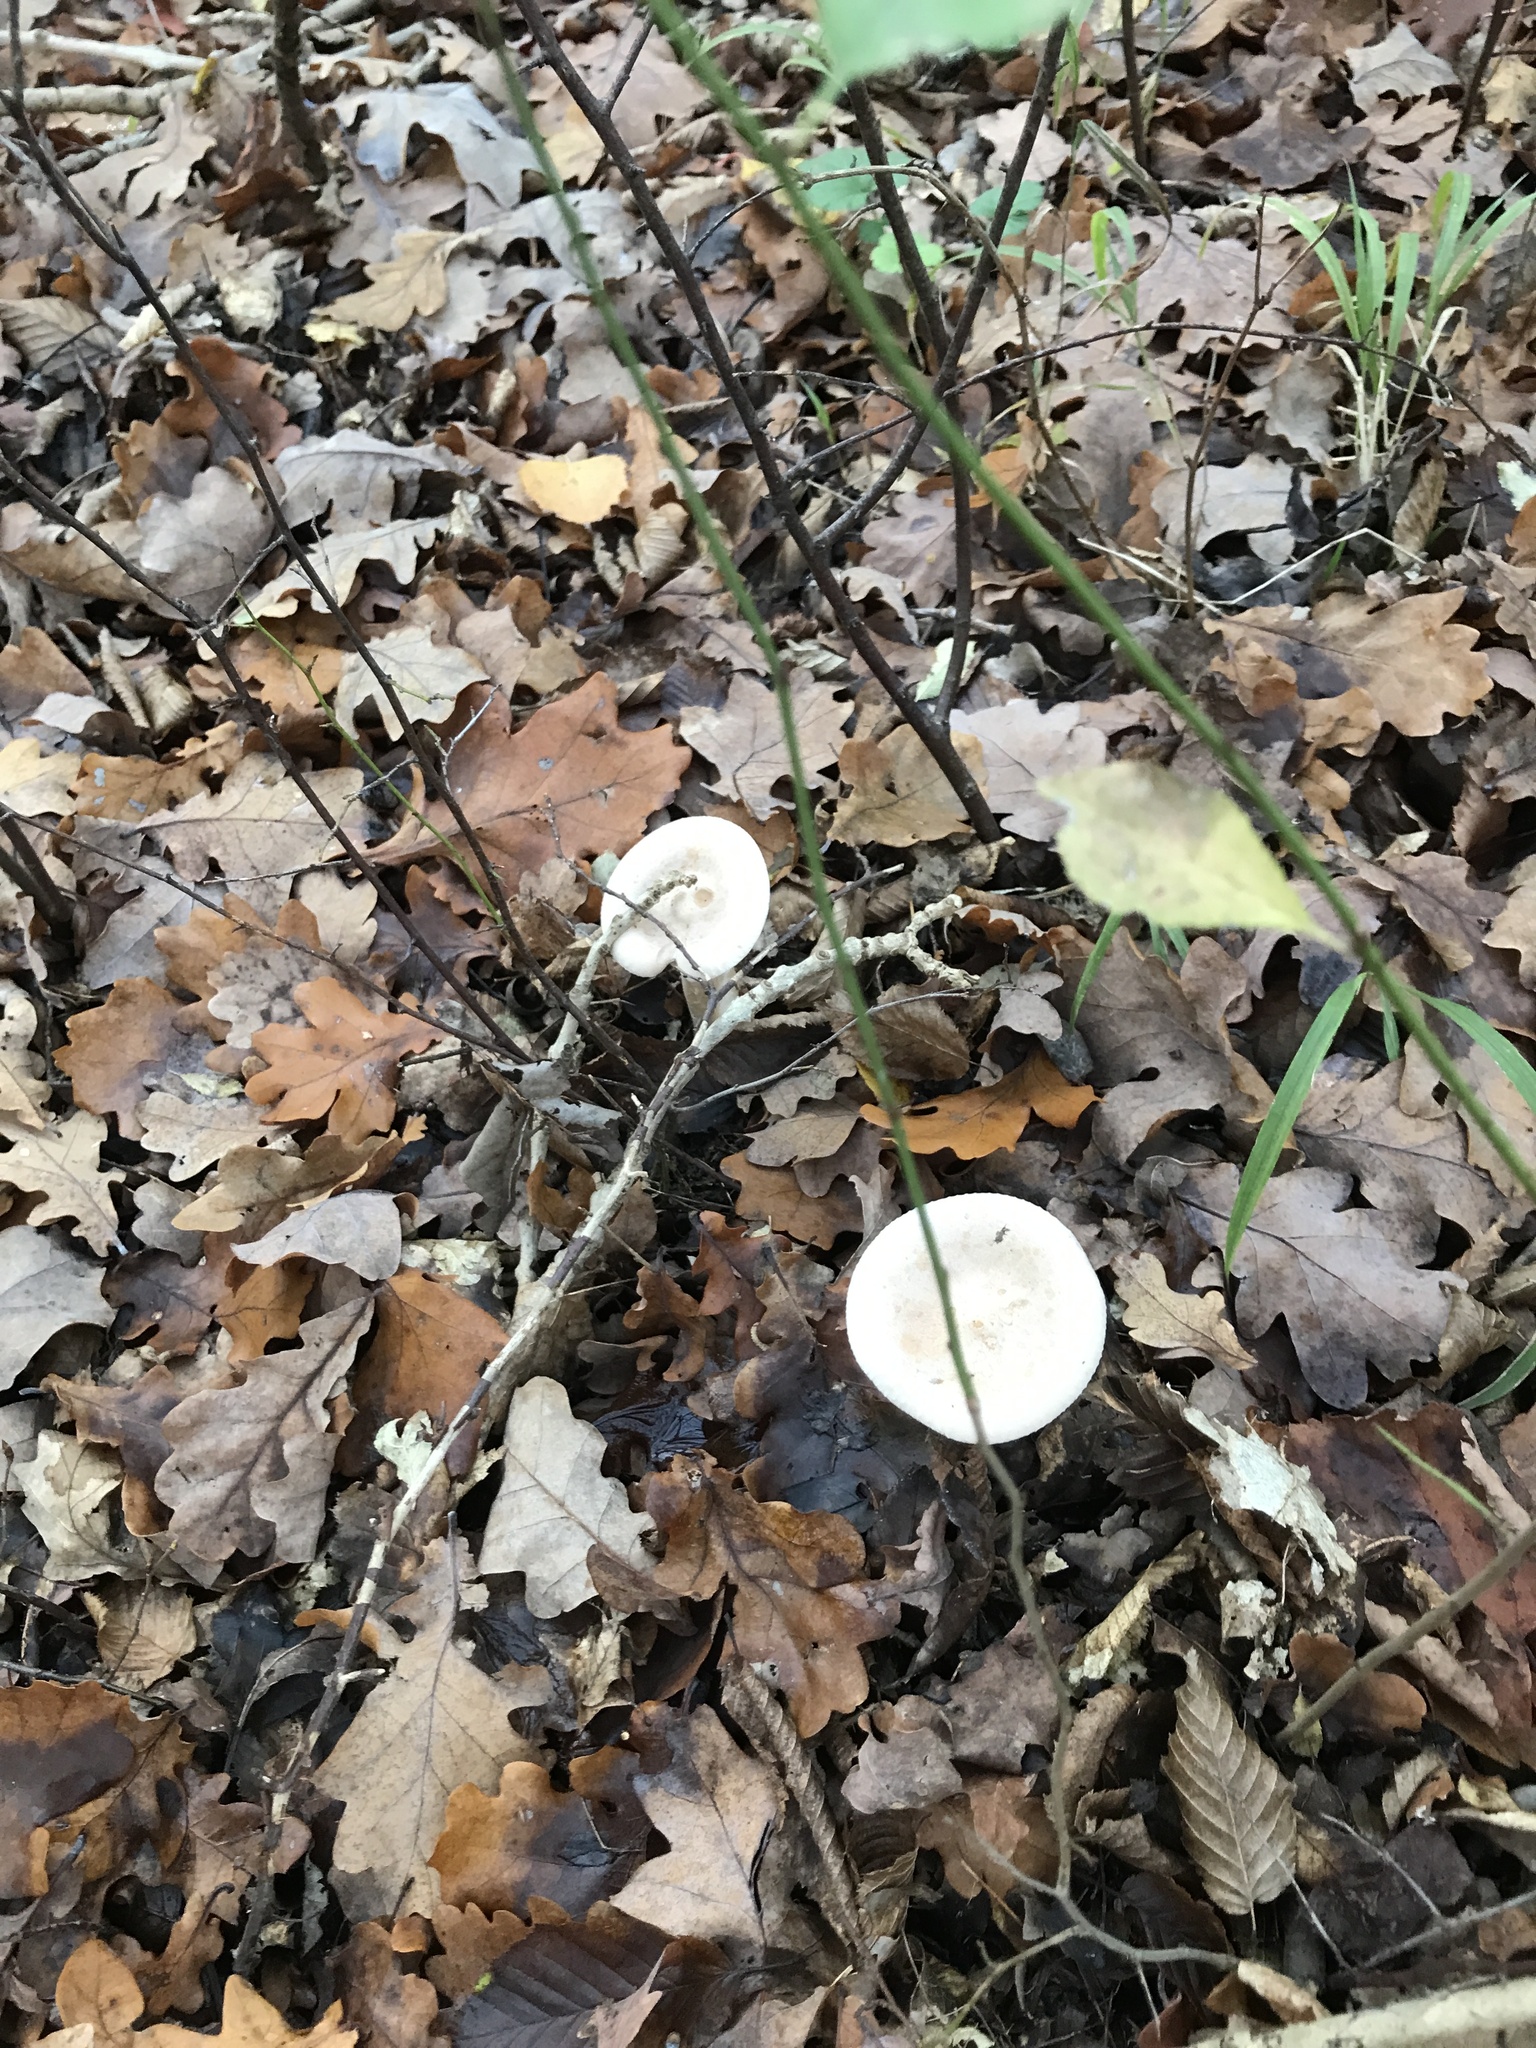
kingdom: Fungi
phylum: Basidiomycota
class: Agaricomycetes
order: Agaricales
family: Tricholomataceae
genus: Infundibulicybe
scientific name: Infundibulicybe geotropa
